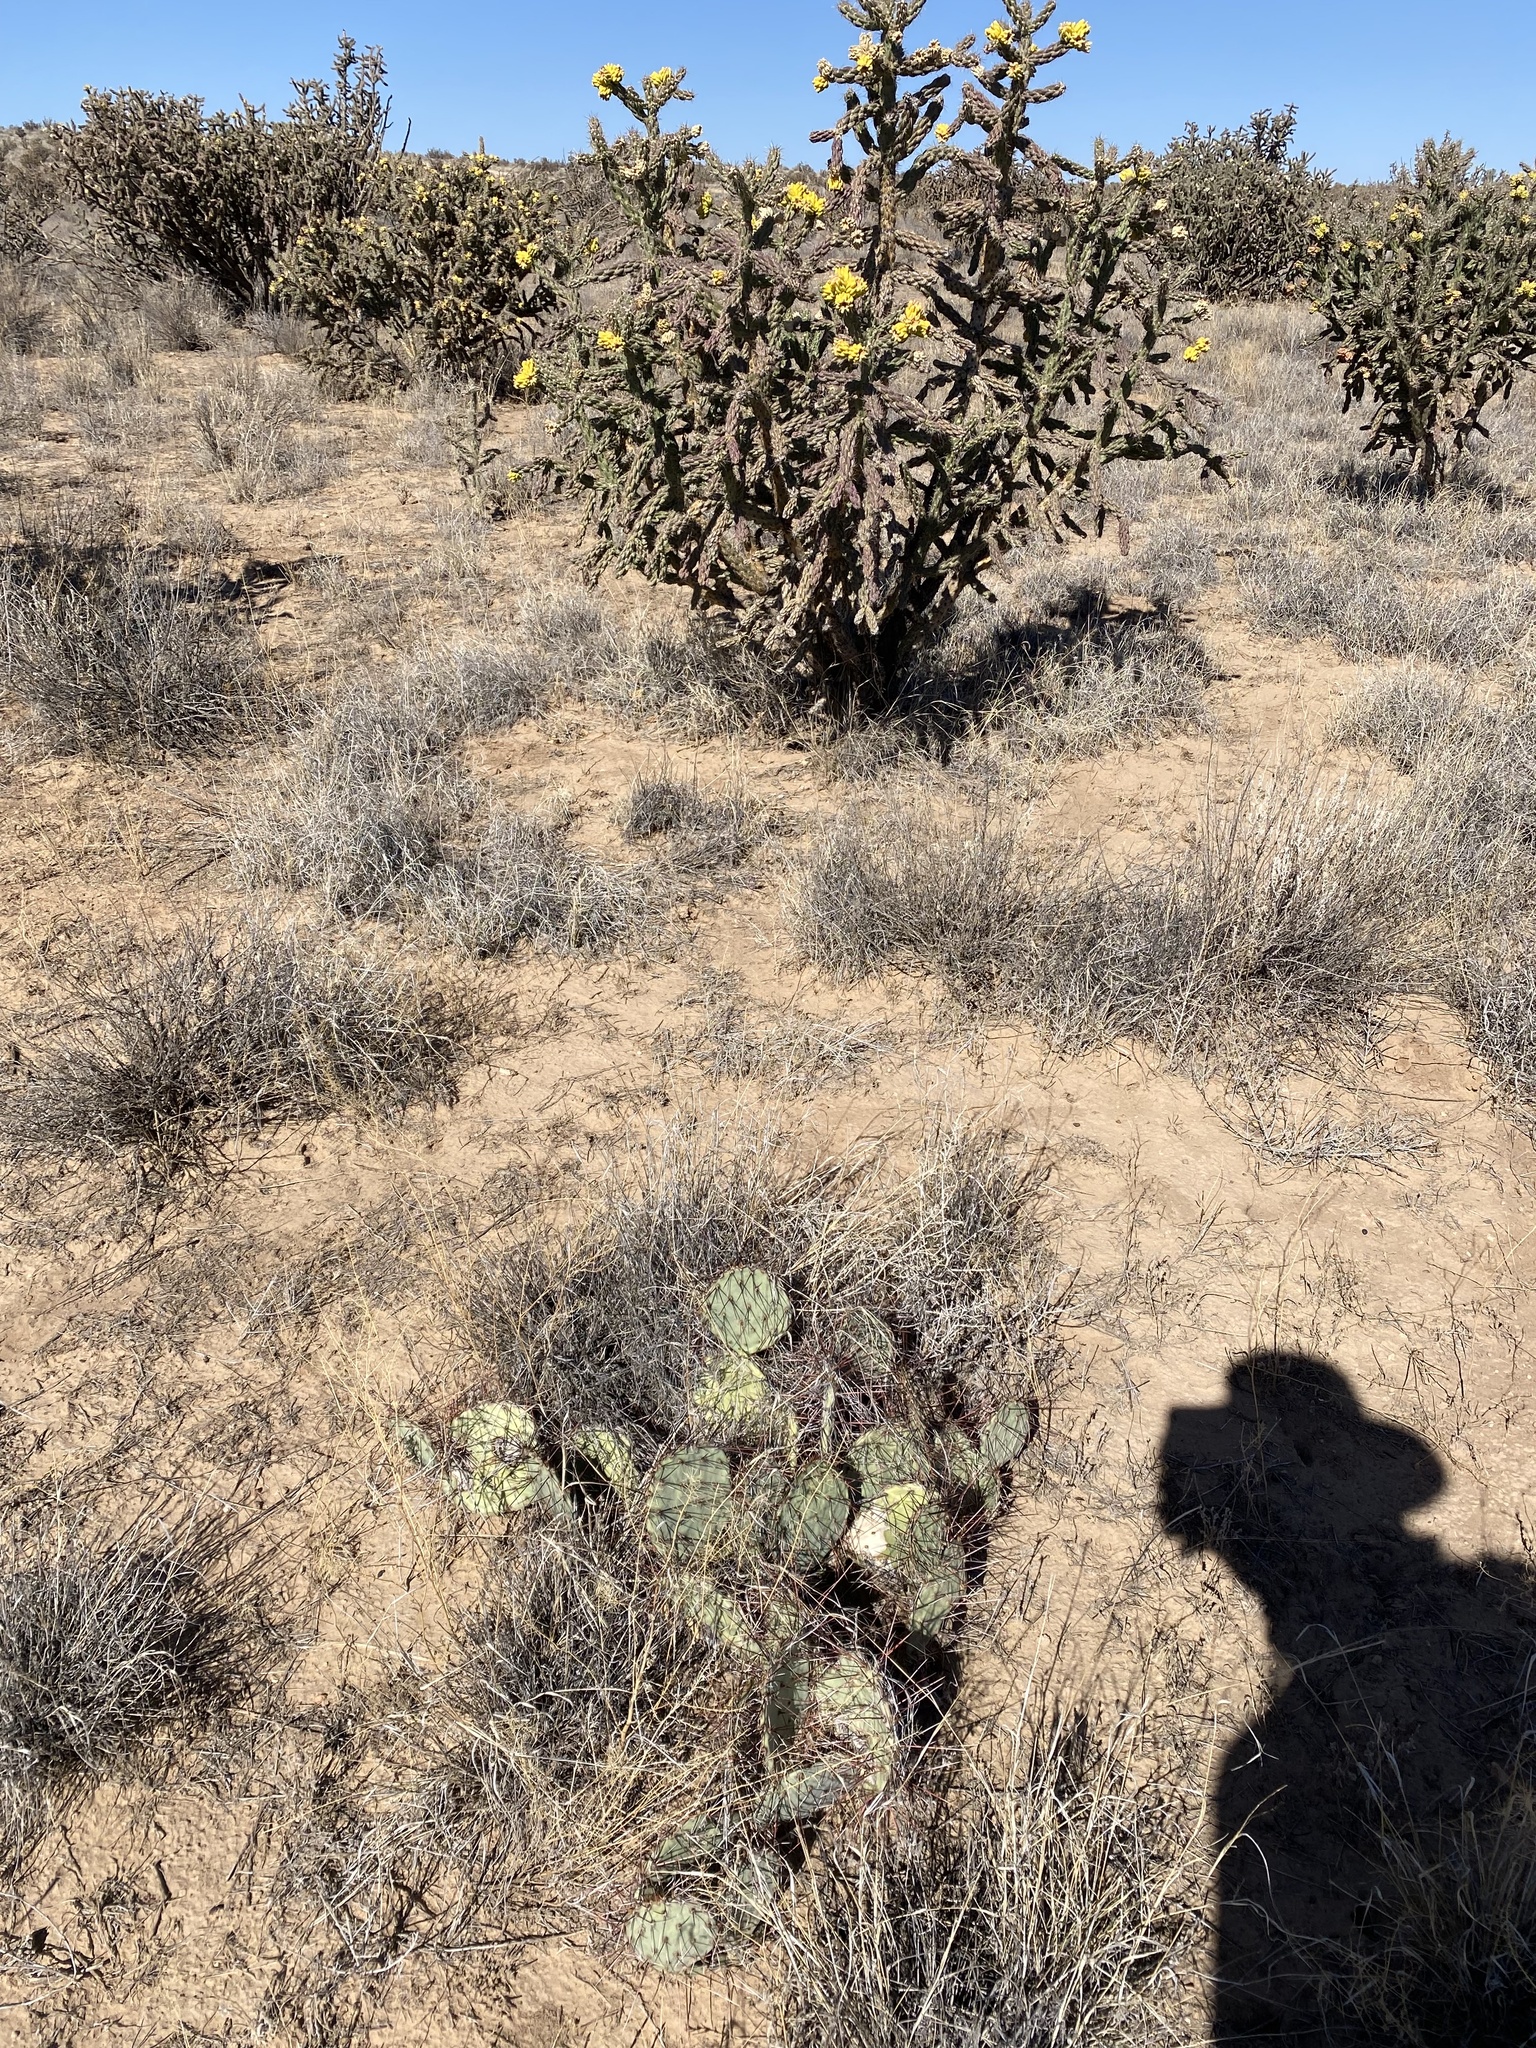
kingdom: Plantae
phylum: Tracheophyta
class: Magnoliopsida
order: Caryophyllales
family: Cactaceae
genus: Opuntia
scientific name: Opuntia
